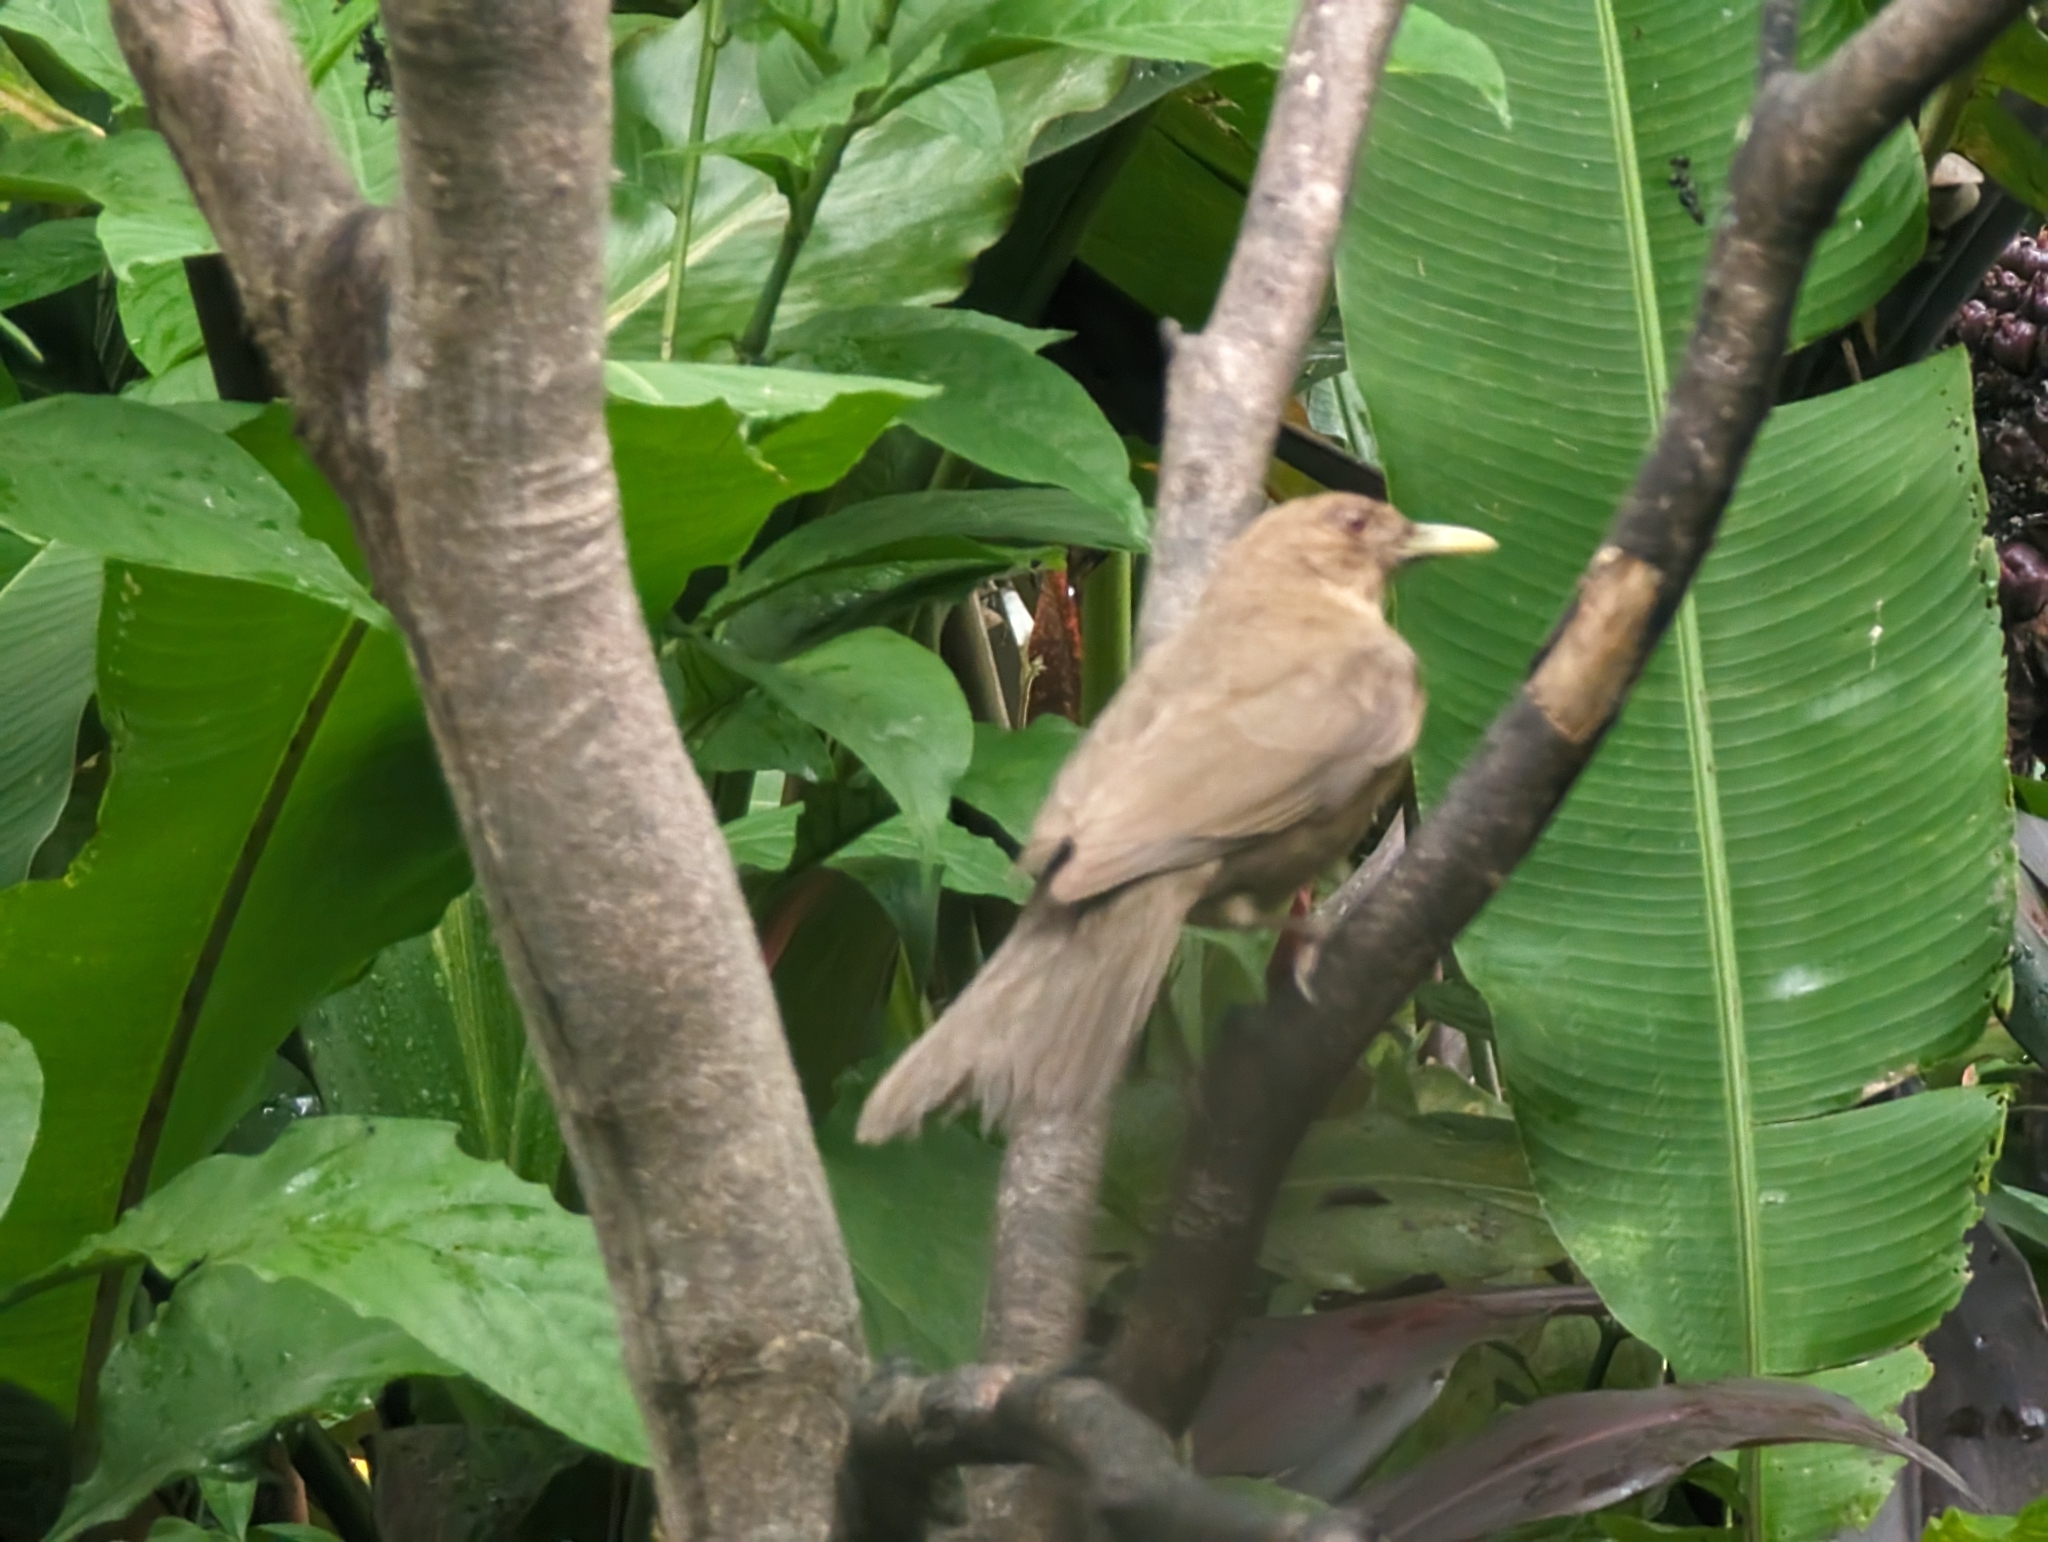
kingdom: Animalia
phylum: Chordata
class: Aves
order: Passeriformes
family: Turdidae
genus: Turdus
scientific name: Turdus grayi
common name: Clay-colored thrush
